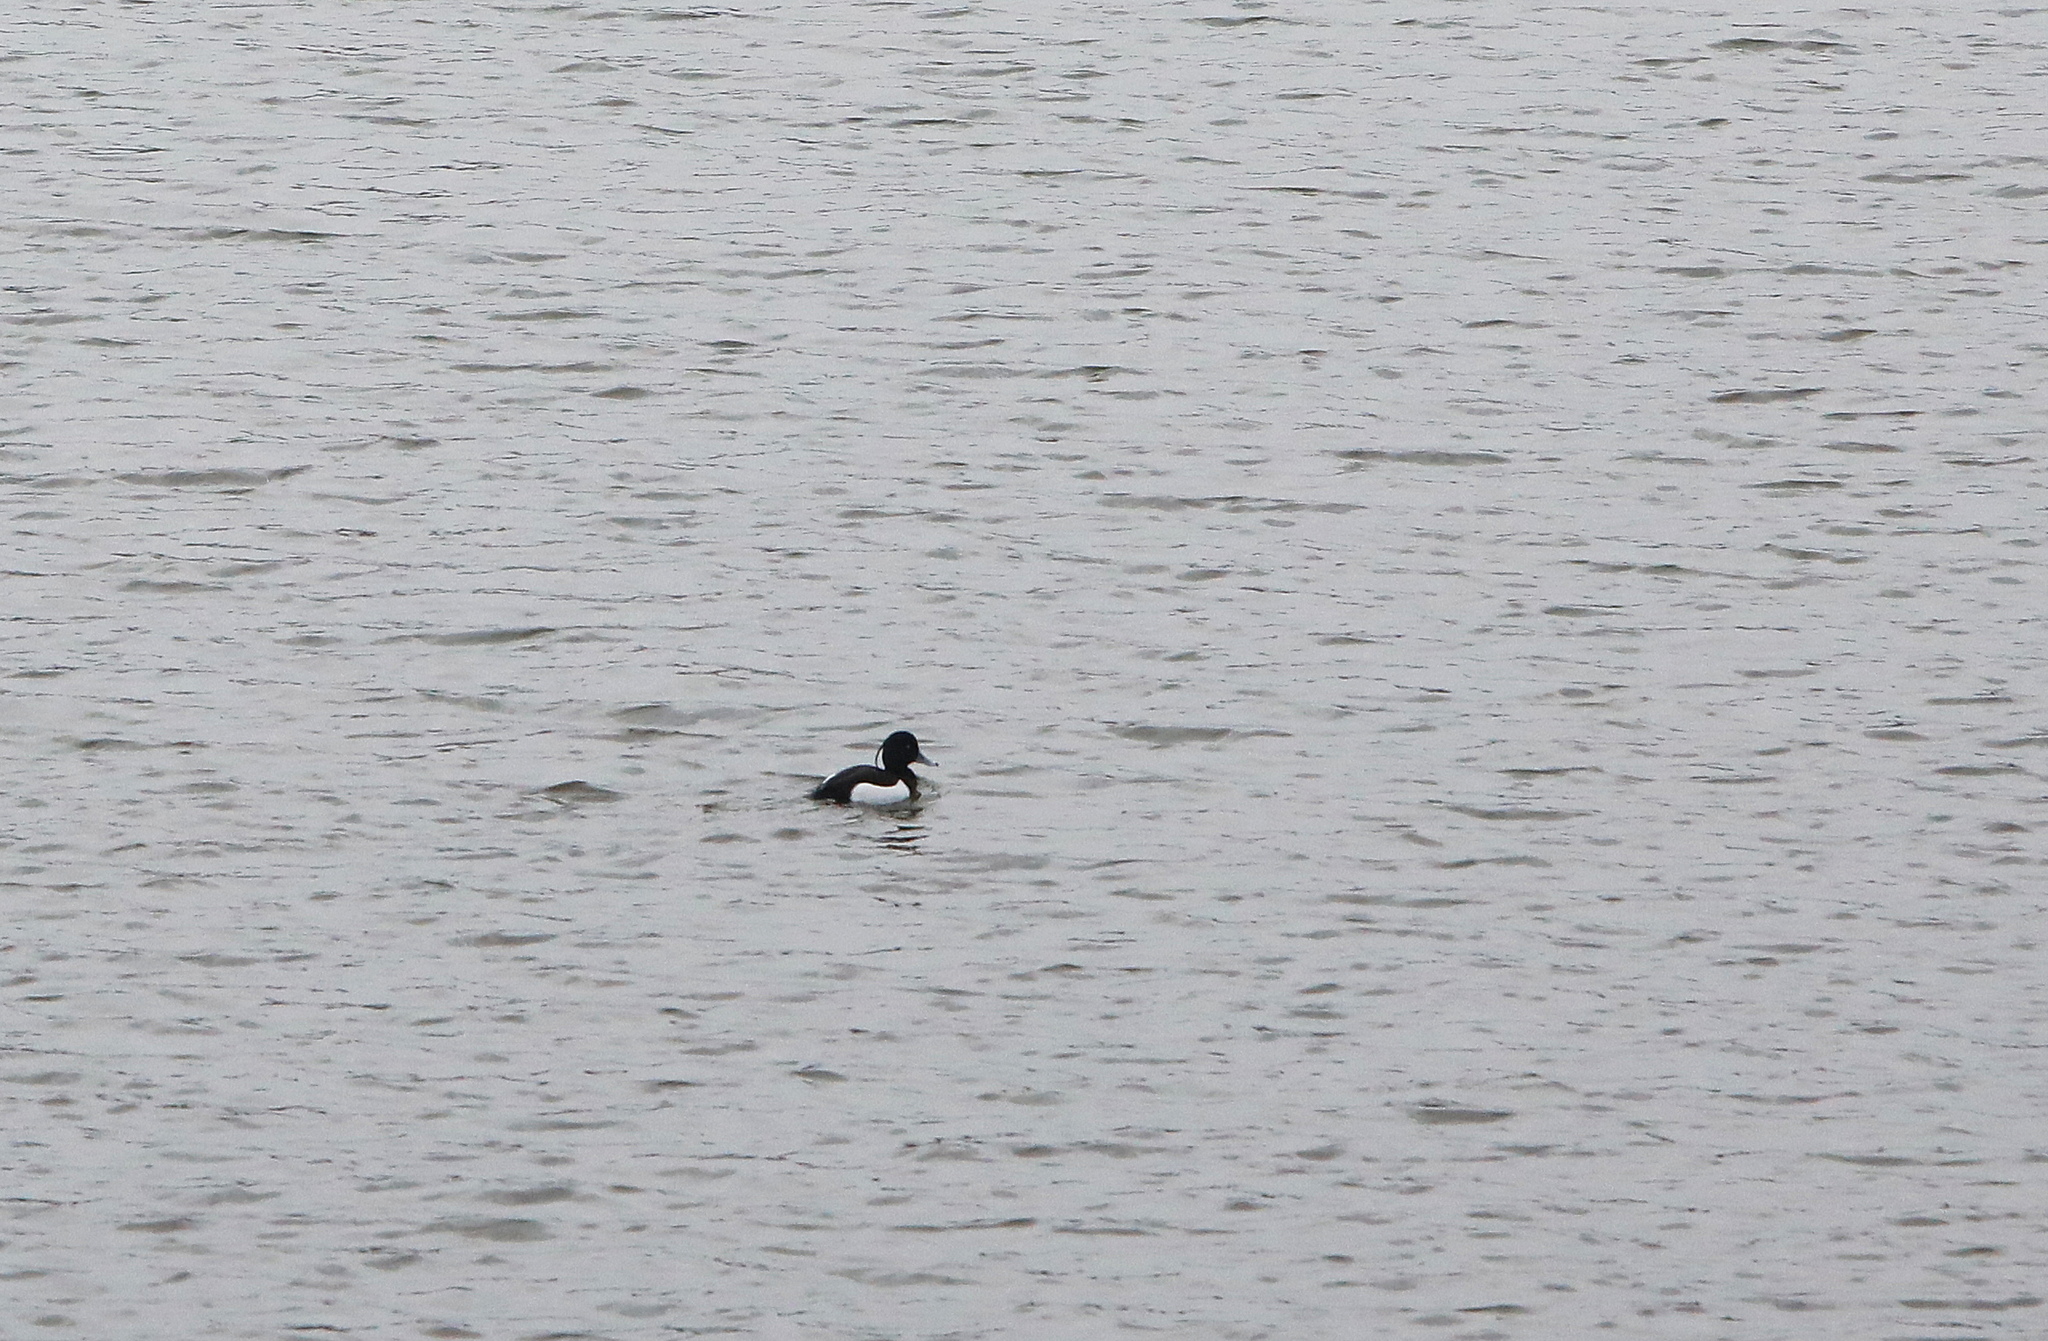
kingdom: Animalia
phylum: Chordata
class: Aves
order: Anseriformes
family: Anatidae
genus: Aythya
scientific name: Aythya fuligula
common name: Tufted duck
